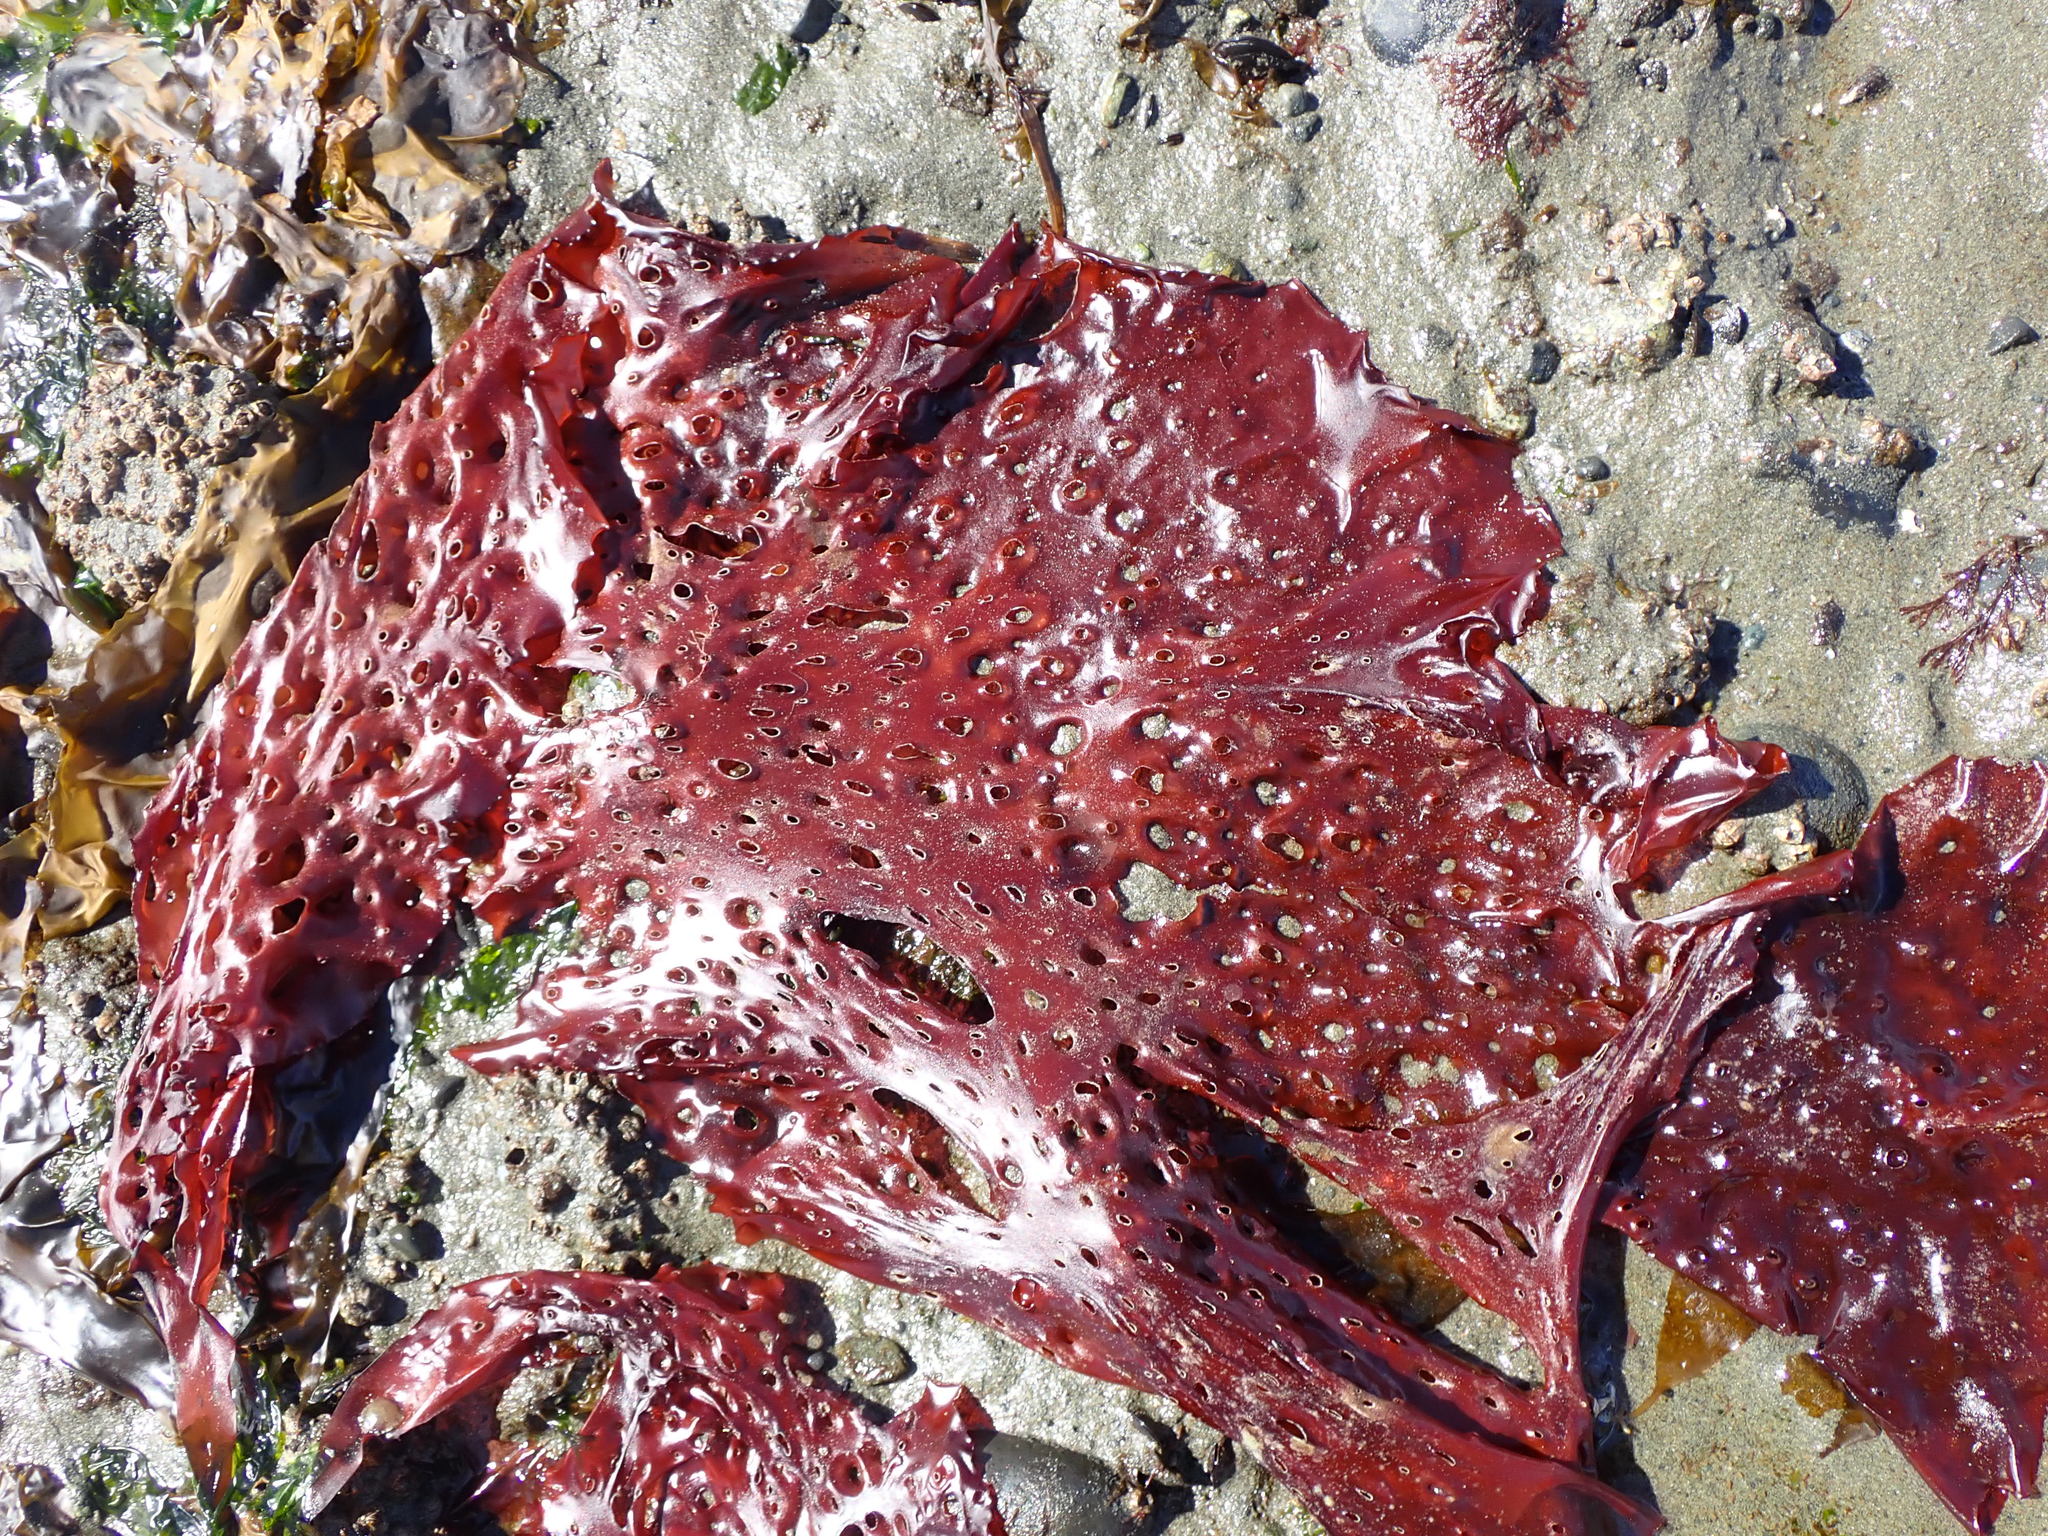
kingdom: Plantae
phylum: Rhodophyta
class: Florideophyceae
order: Rhodymeniales
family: Rhodymeniaceae
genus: Sparlingia
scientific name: Sparlingia pertusa
